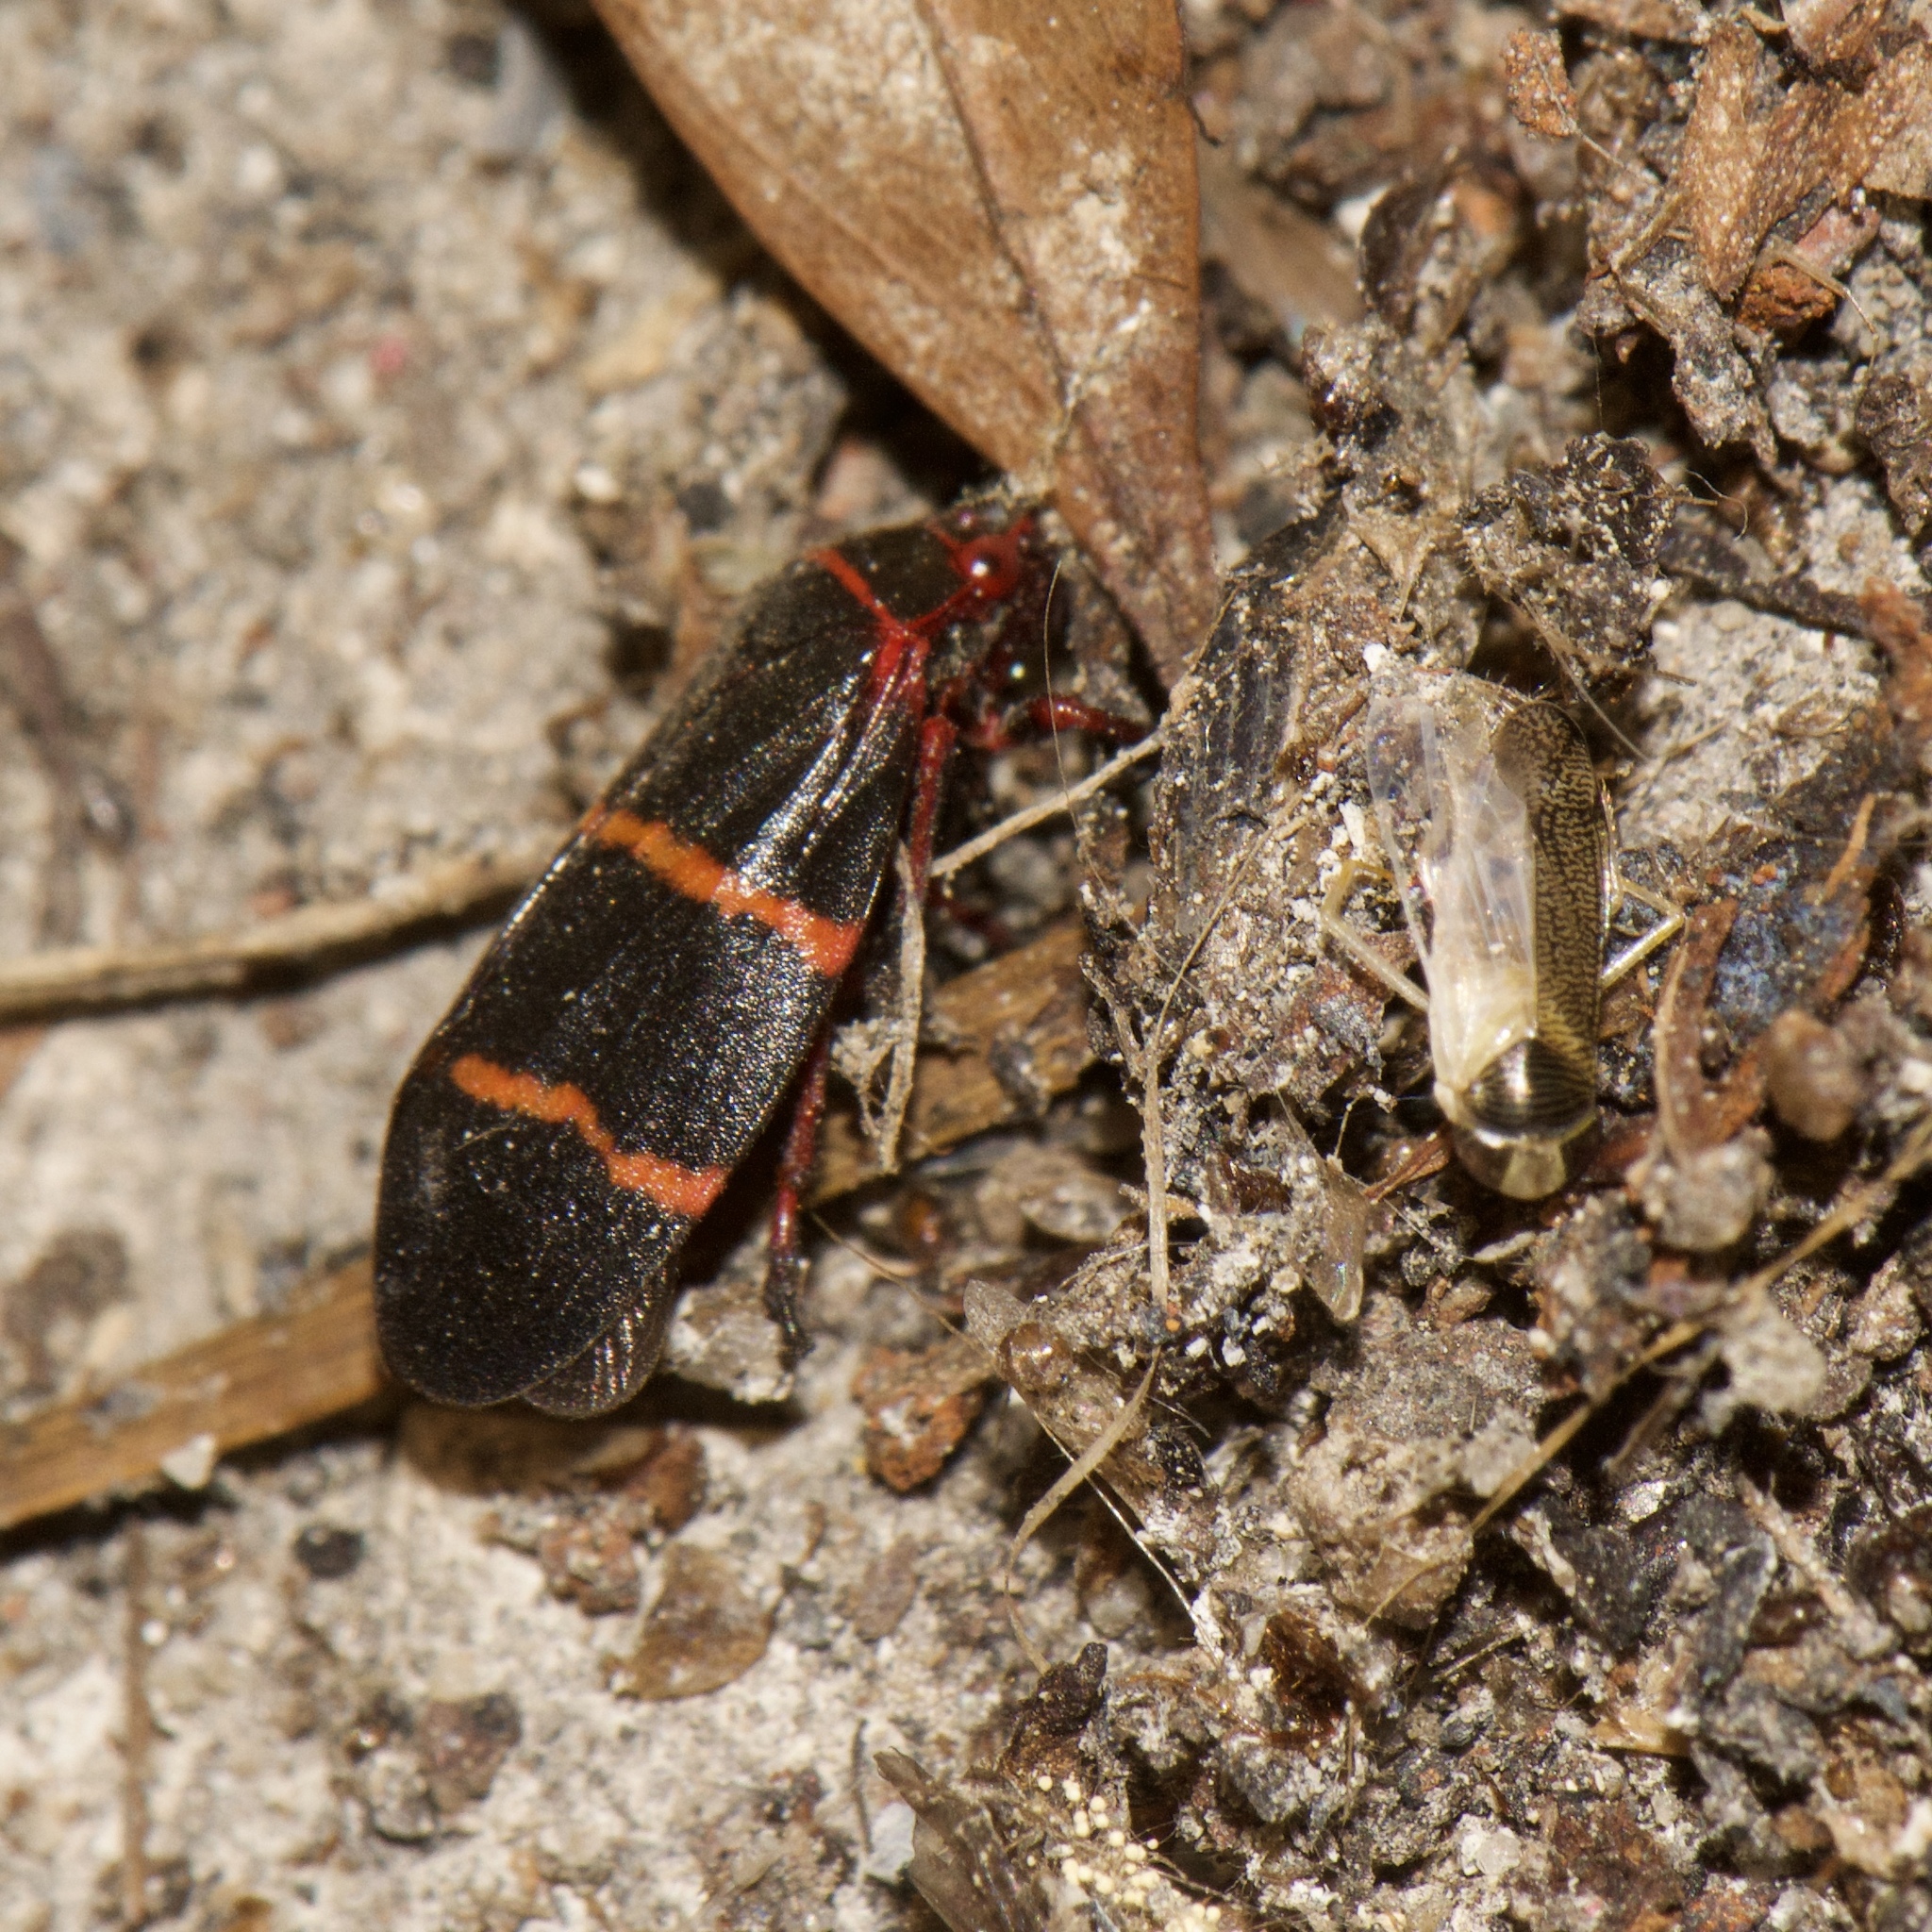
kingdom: Animalia
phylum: Arthropoda
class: Insecta
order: Hemiptera
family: Cercopidae
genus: Prosapia
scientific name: Prosapia bicincta
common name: Twolined spittlebug
